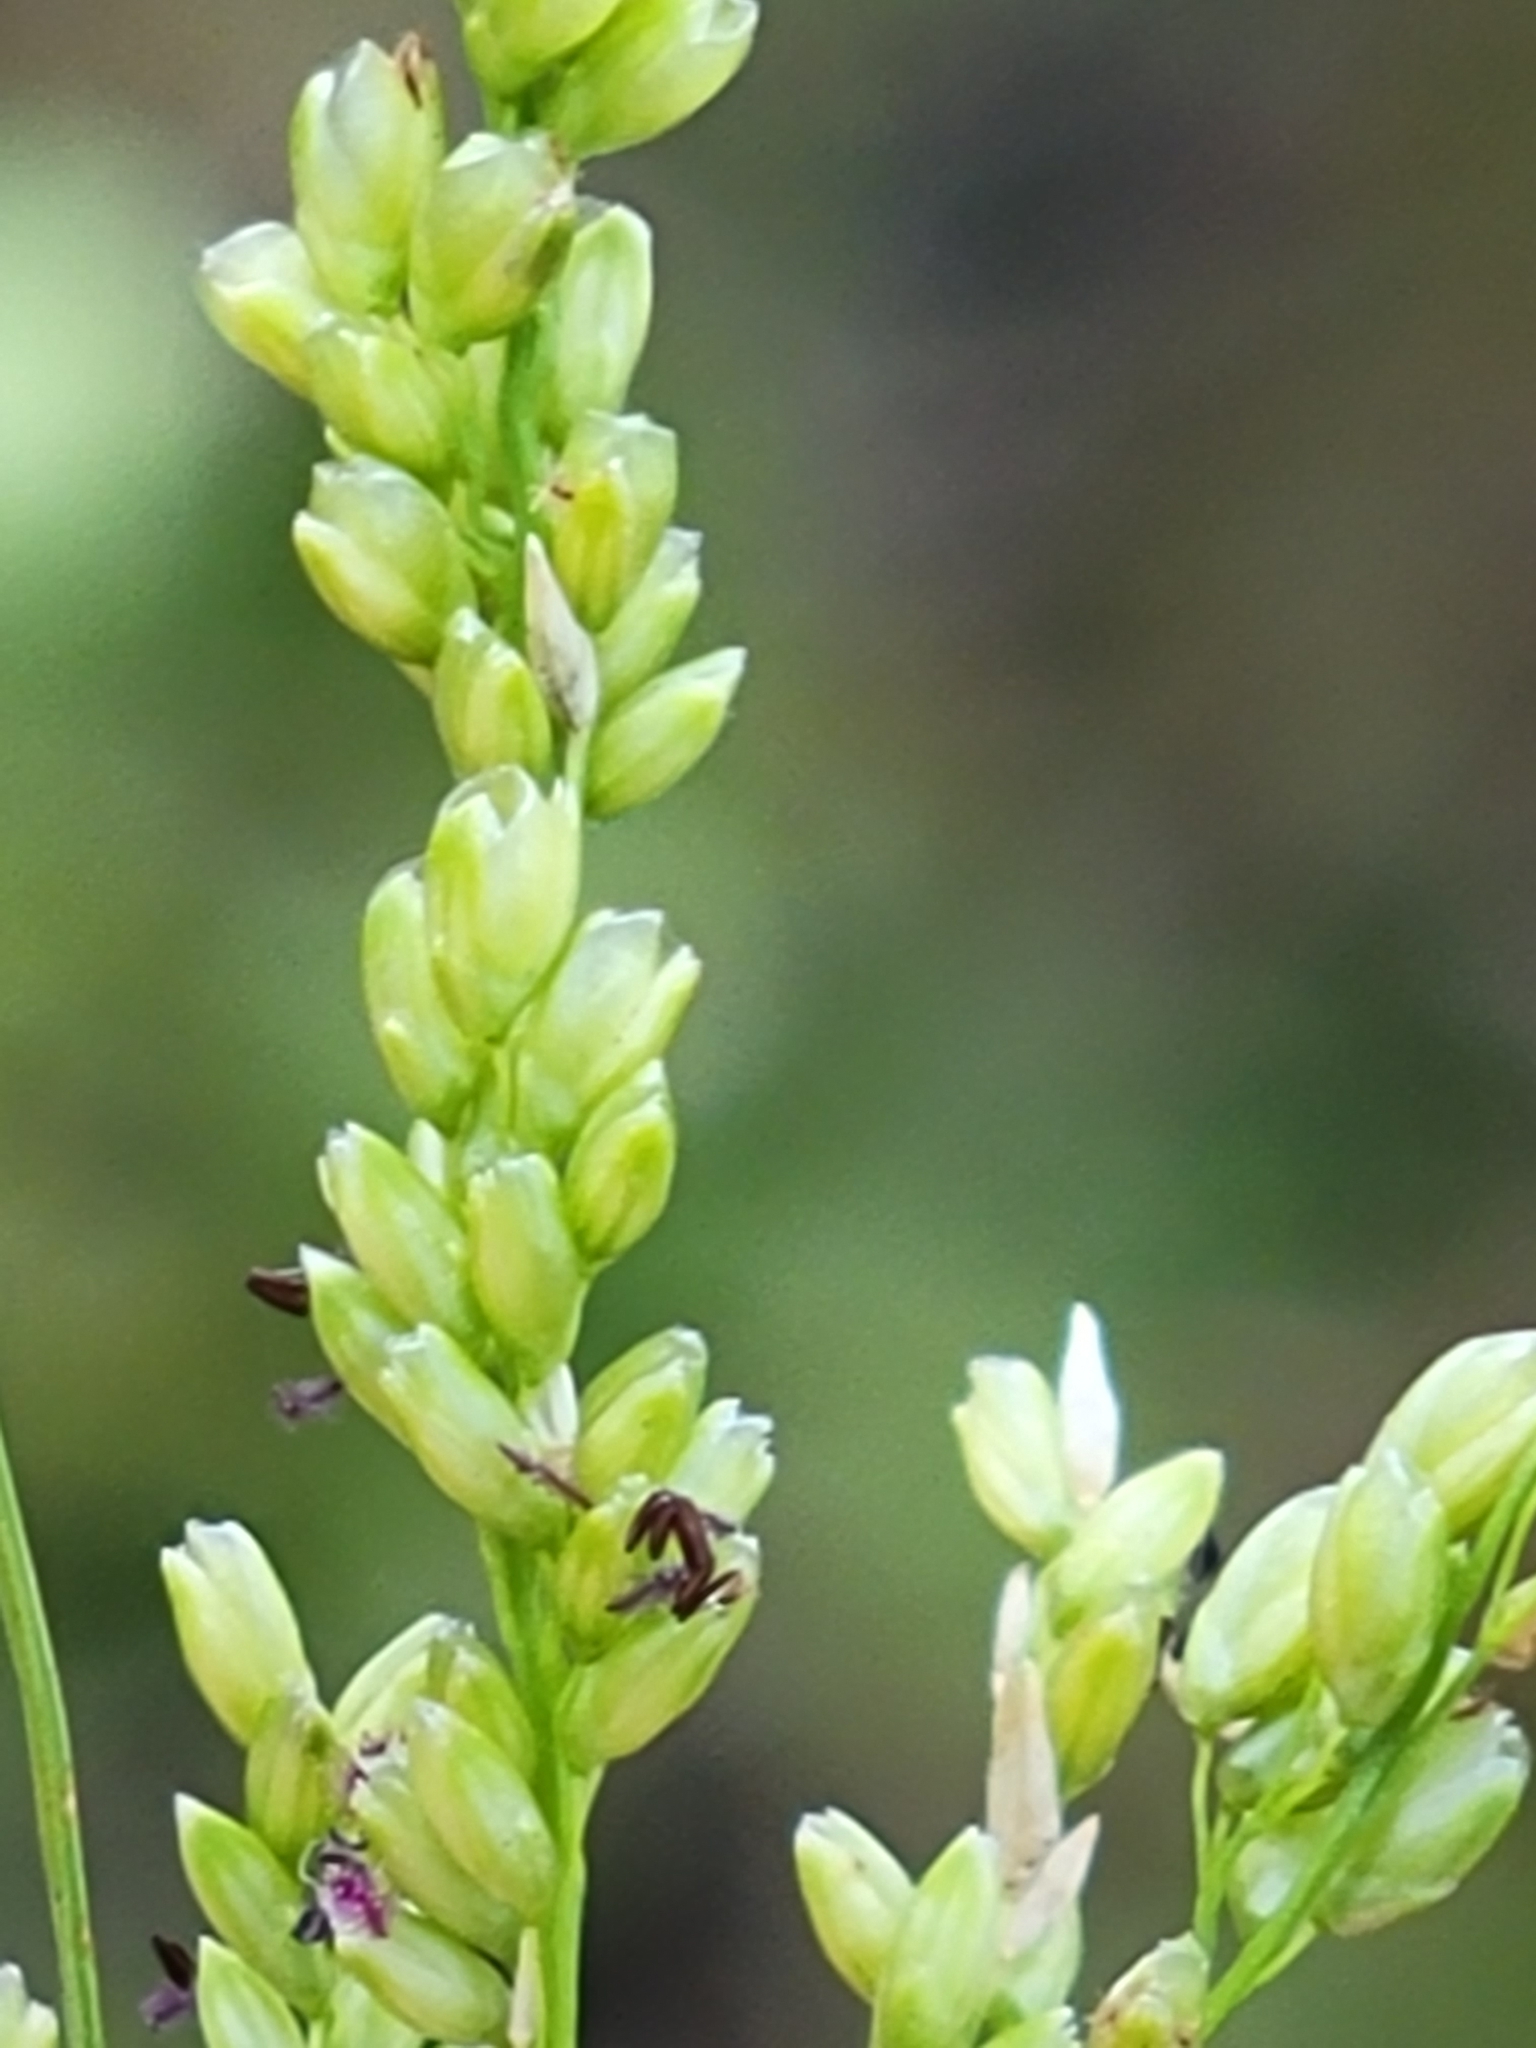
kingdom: Plantae
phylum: Tracheophyta
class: Liliopsida
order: Poales
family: Poaceae
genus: Steinchisma
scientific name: Steinchisma hians
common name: Gaping panic grass
